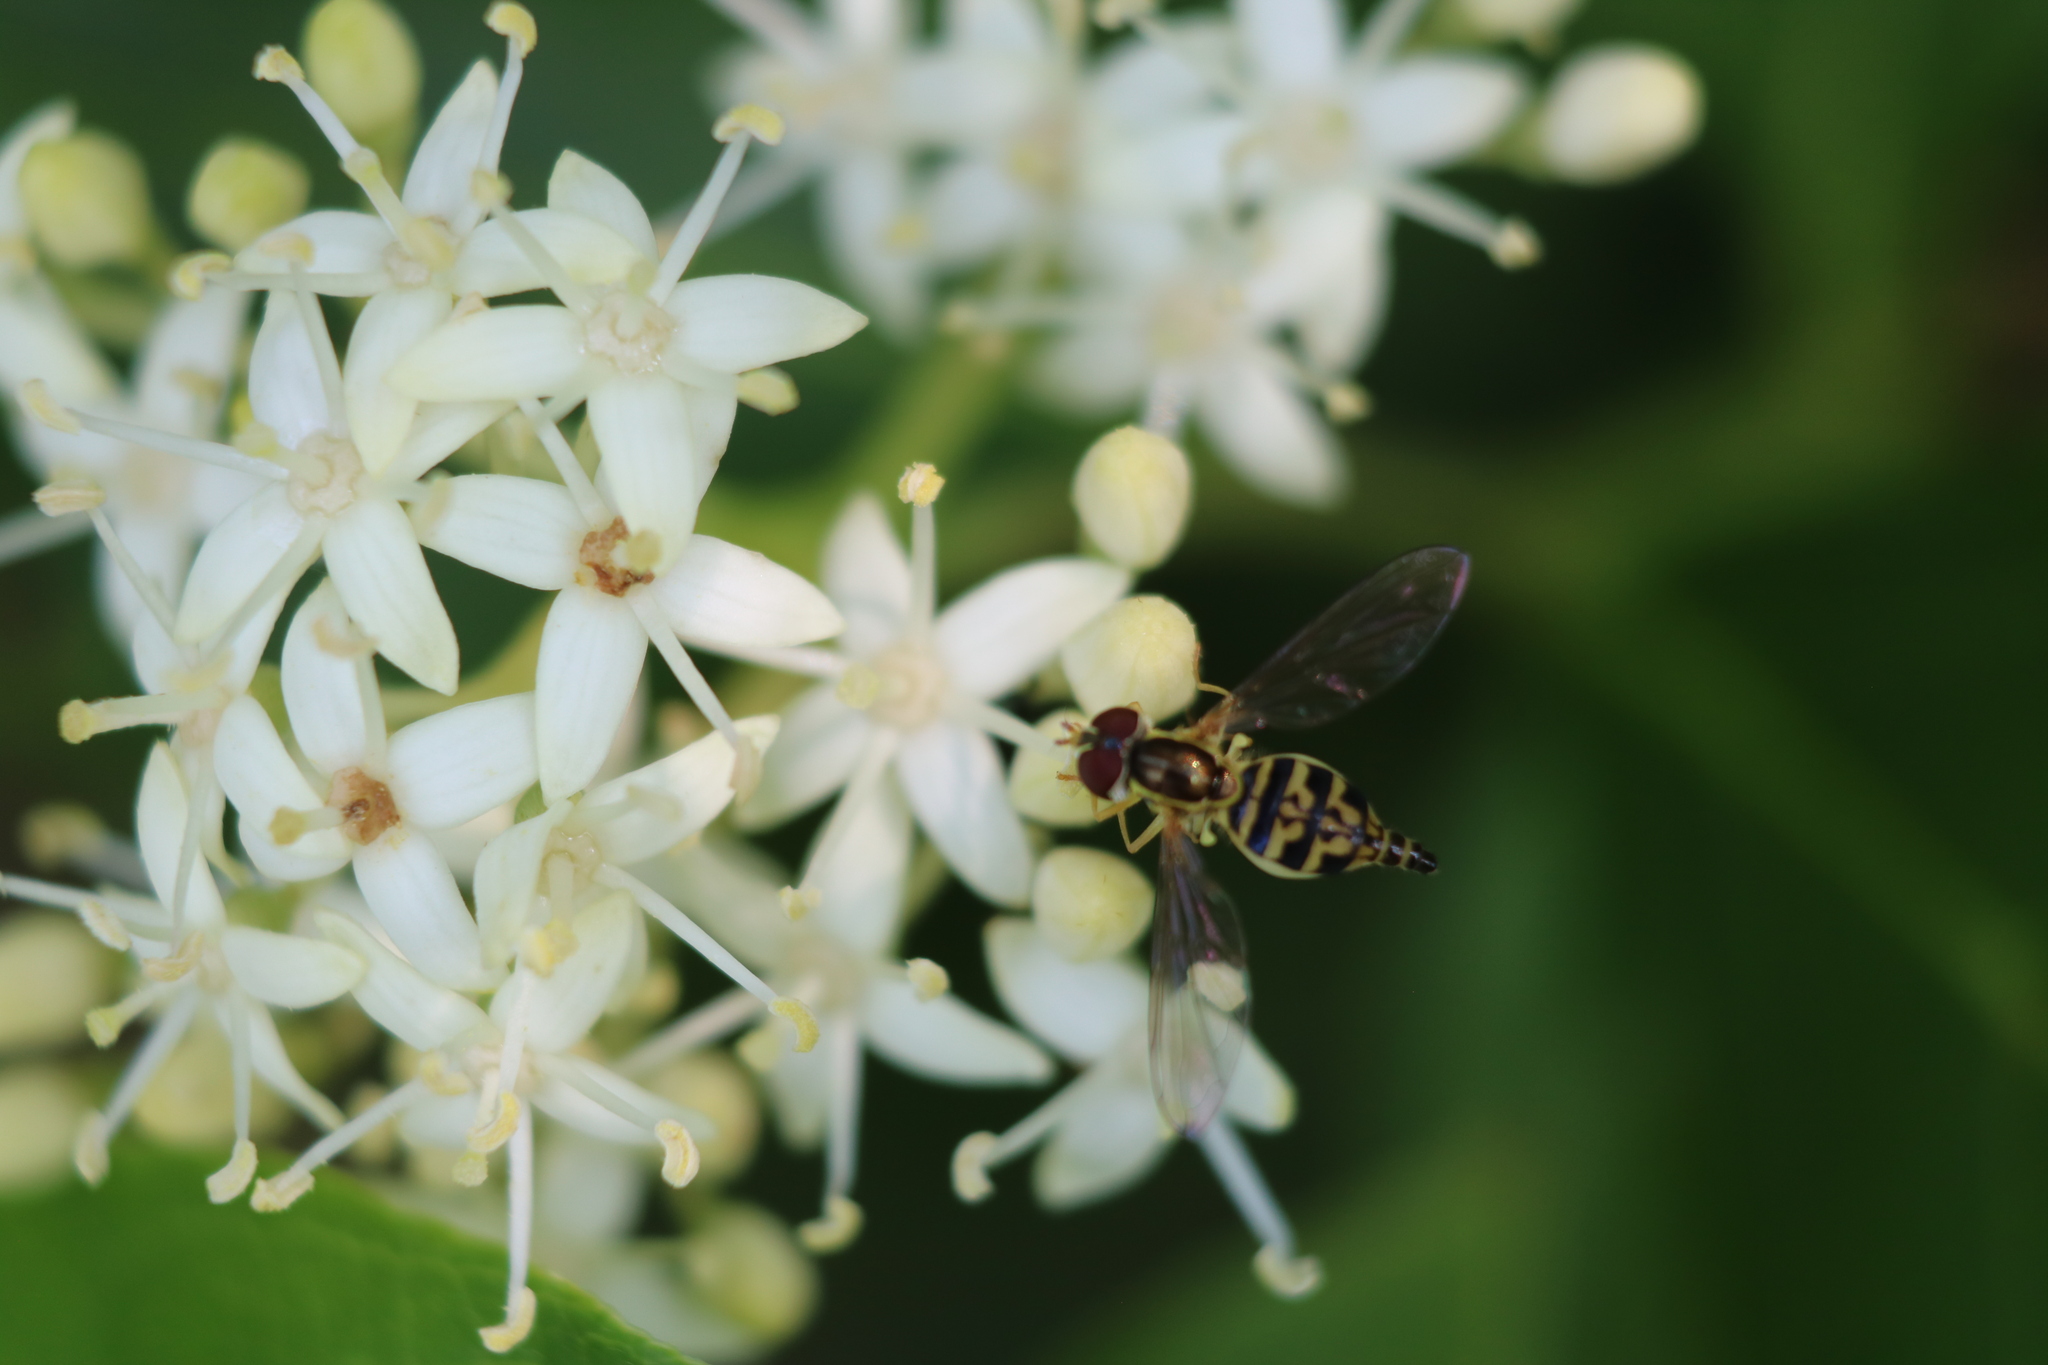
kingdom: Animalia
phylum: Arthropoda
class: Insecta
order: Diptera
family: Syrphidae
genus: Toxomerus
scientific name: Toxomerus geminatus
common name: Eastern calligrapher
